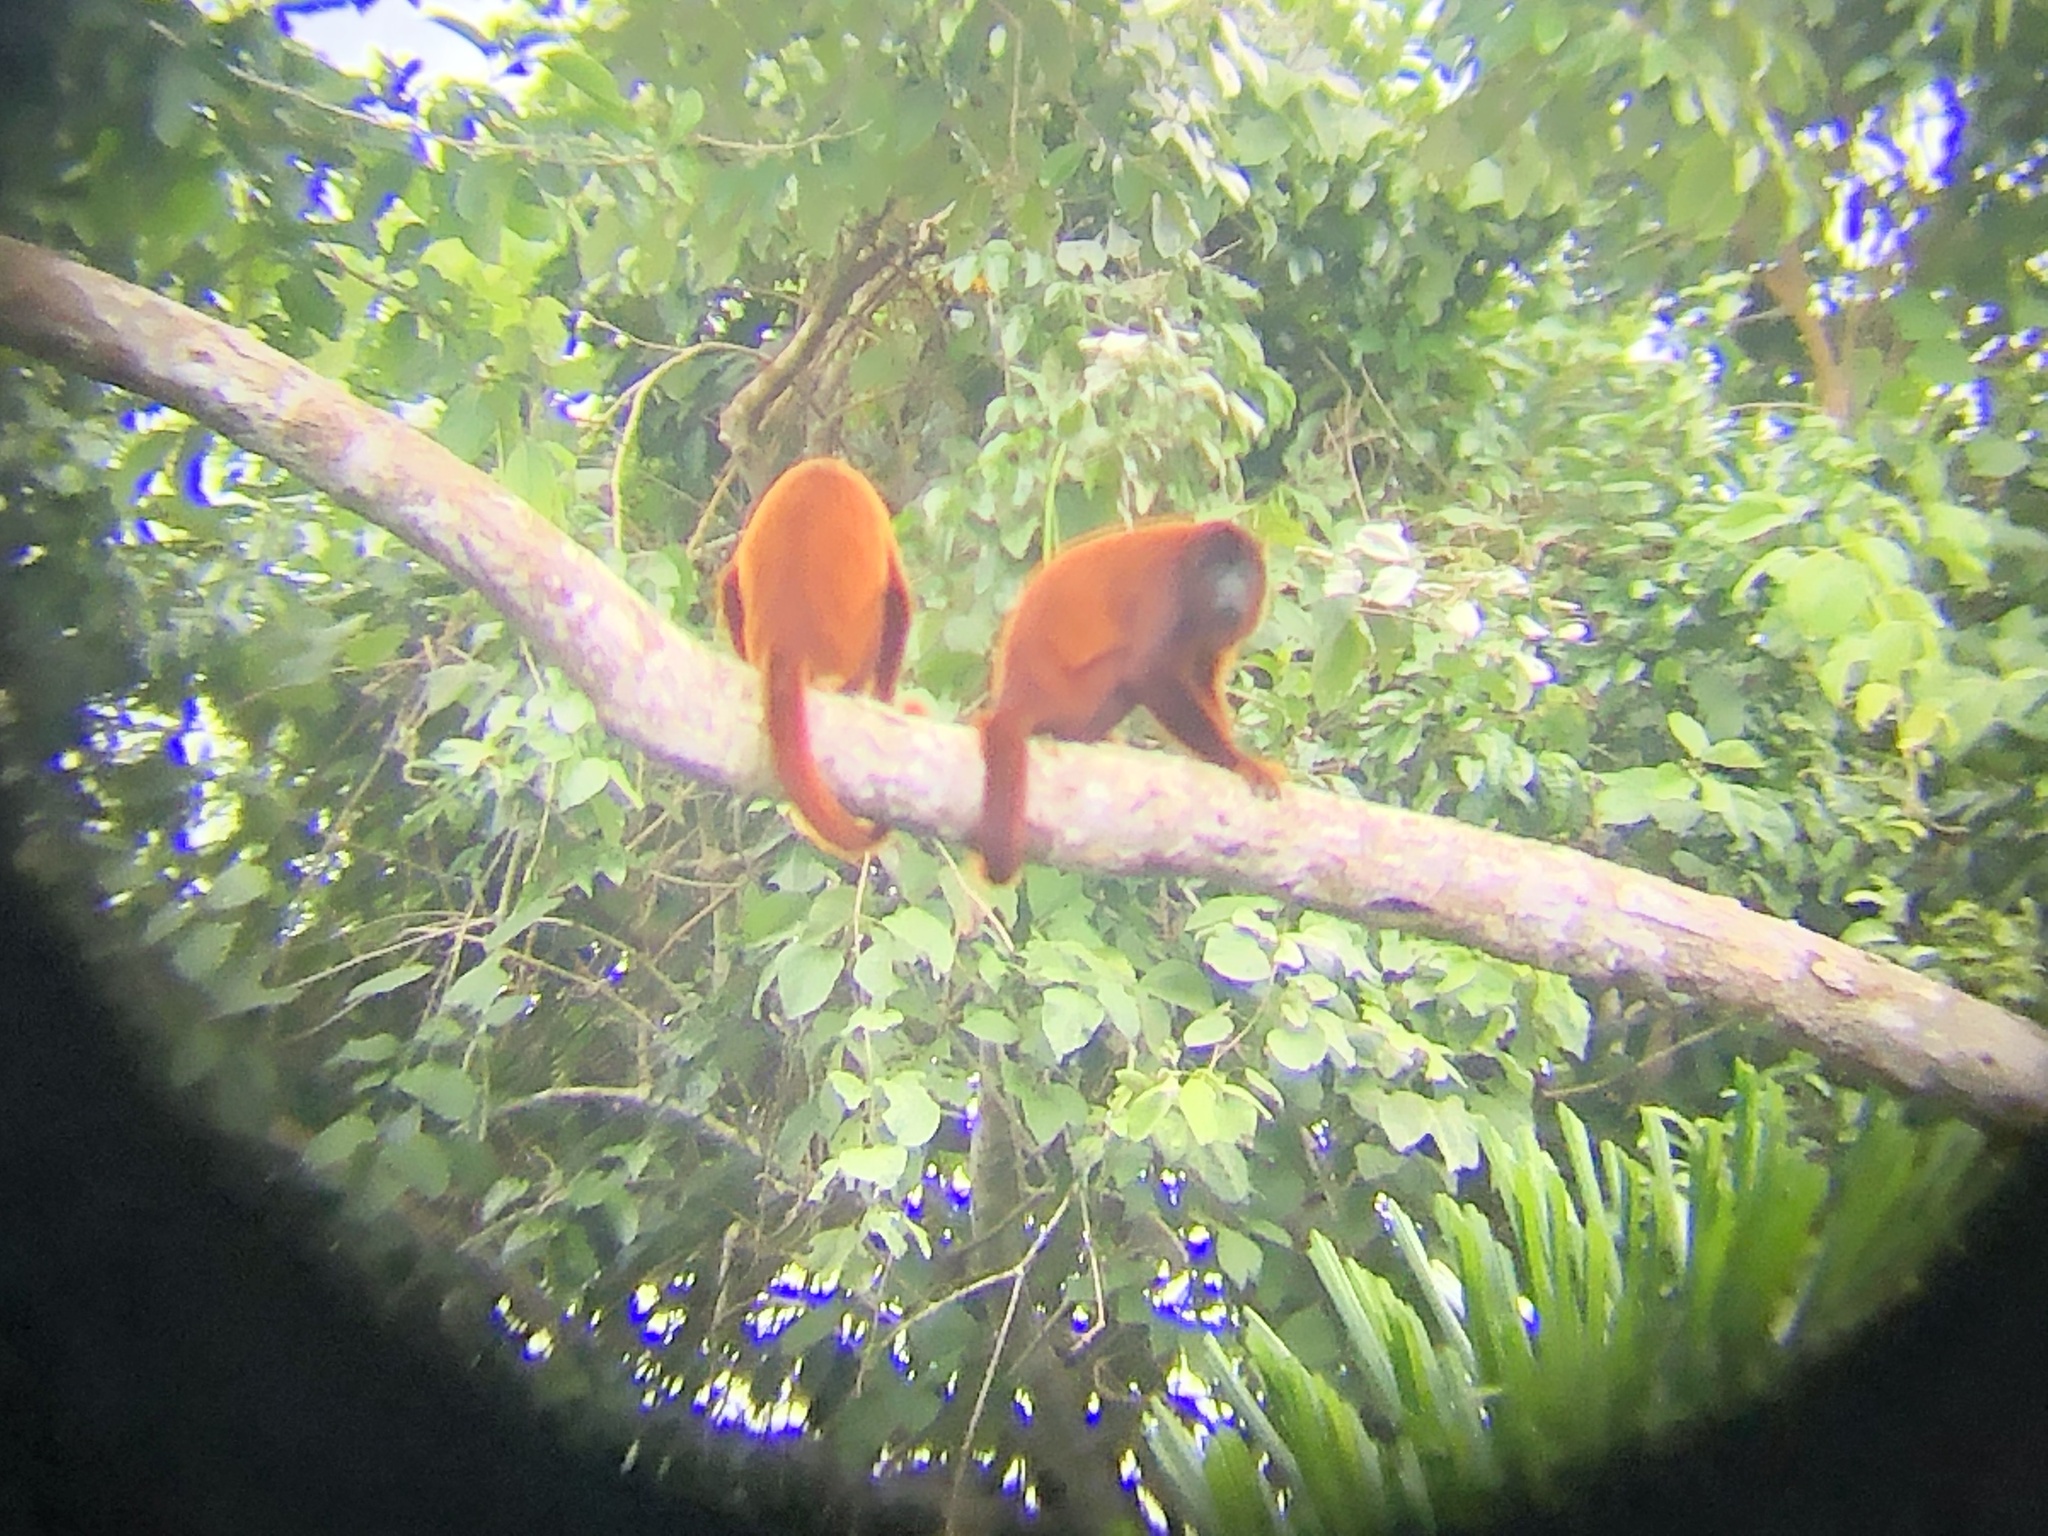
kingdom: Animalia
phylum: Chordata
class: Mammalia
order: Primates
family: Atelidae
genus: Alouatta
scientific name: Alouatta seniculus
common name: Venezuelan red howler
